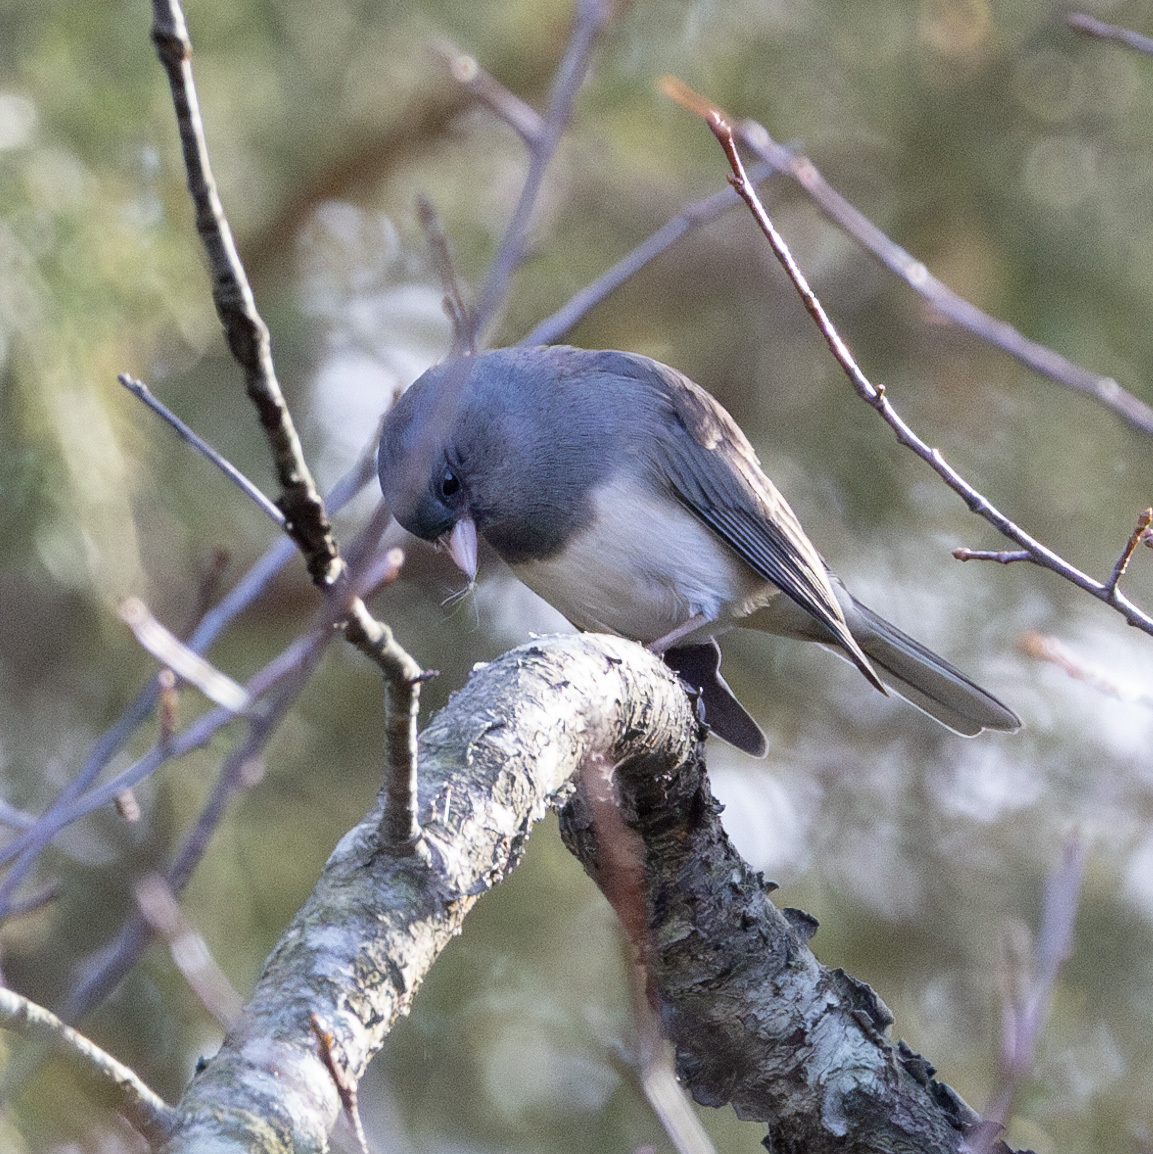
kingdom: Animalia
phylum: Chordata
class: Aves
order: Passeriformes
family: Passerellidae
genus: Junco
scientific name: Junco hyemalis
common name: Dark-eyed junco
